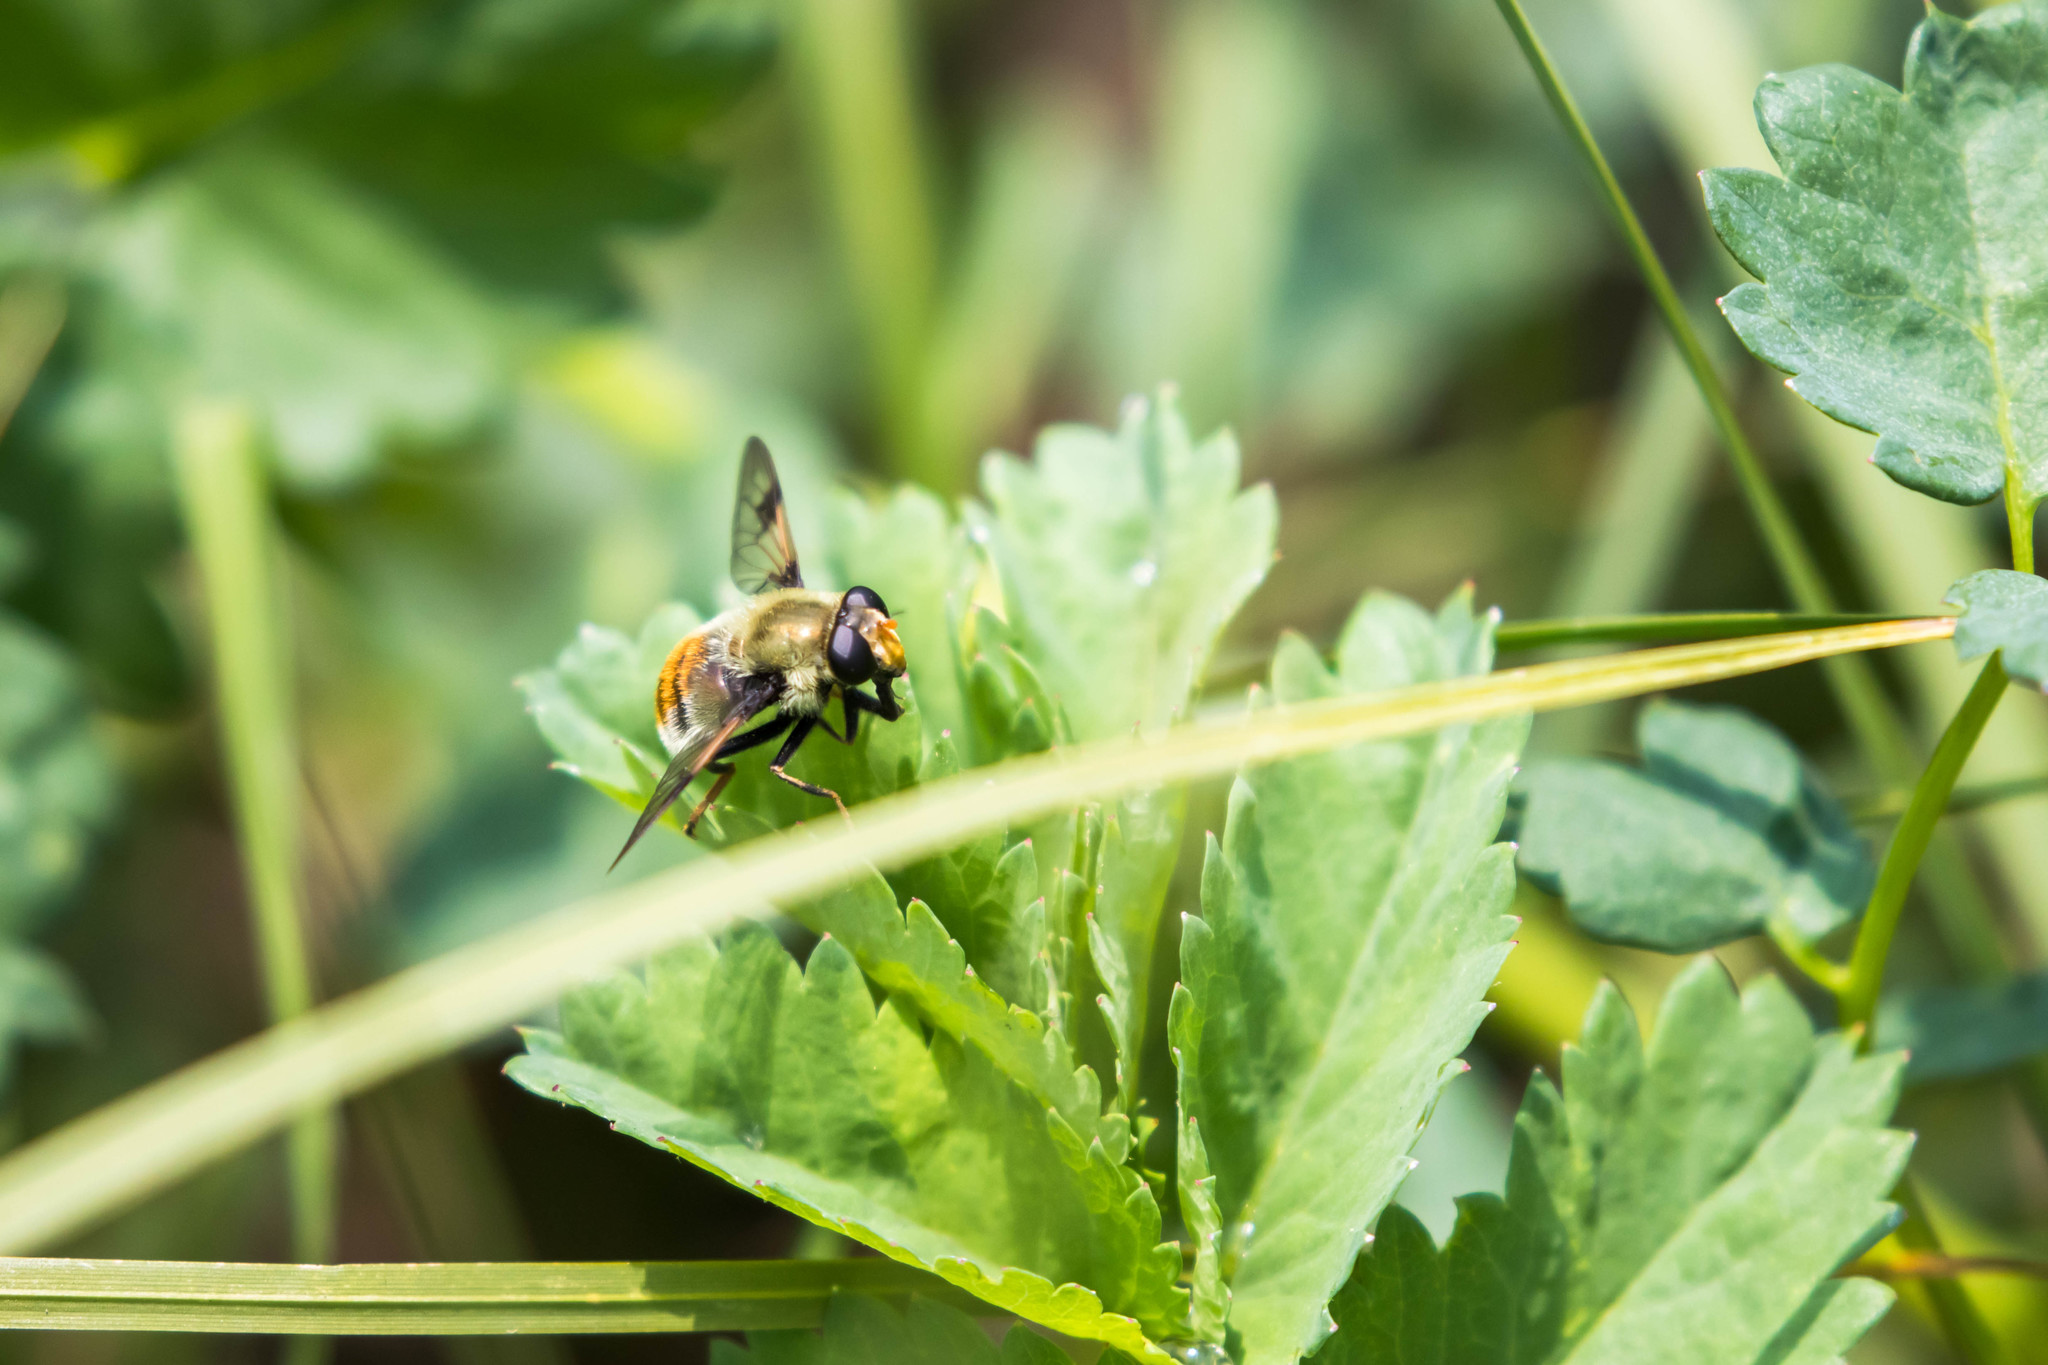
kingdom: Animalia
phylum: Arthropoda
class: Insecta
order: Diptera
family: Syrphidae
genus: Sericomyia
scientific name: Sericomyia flagrans
